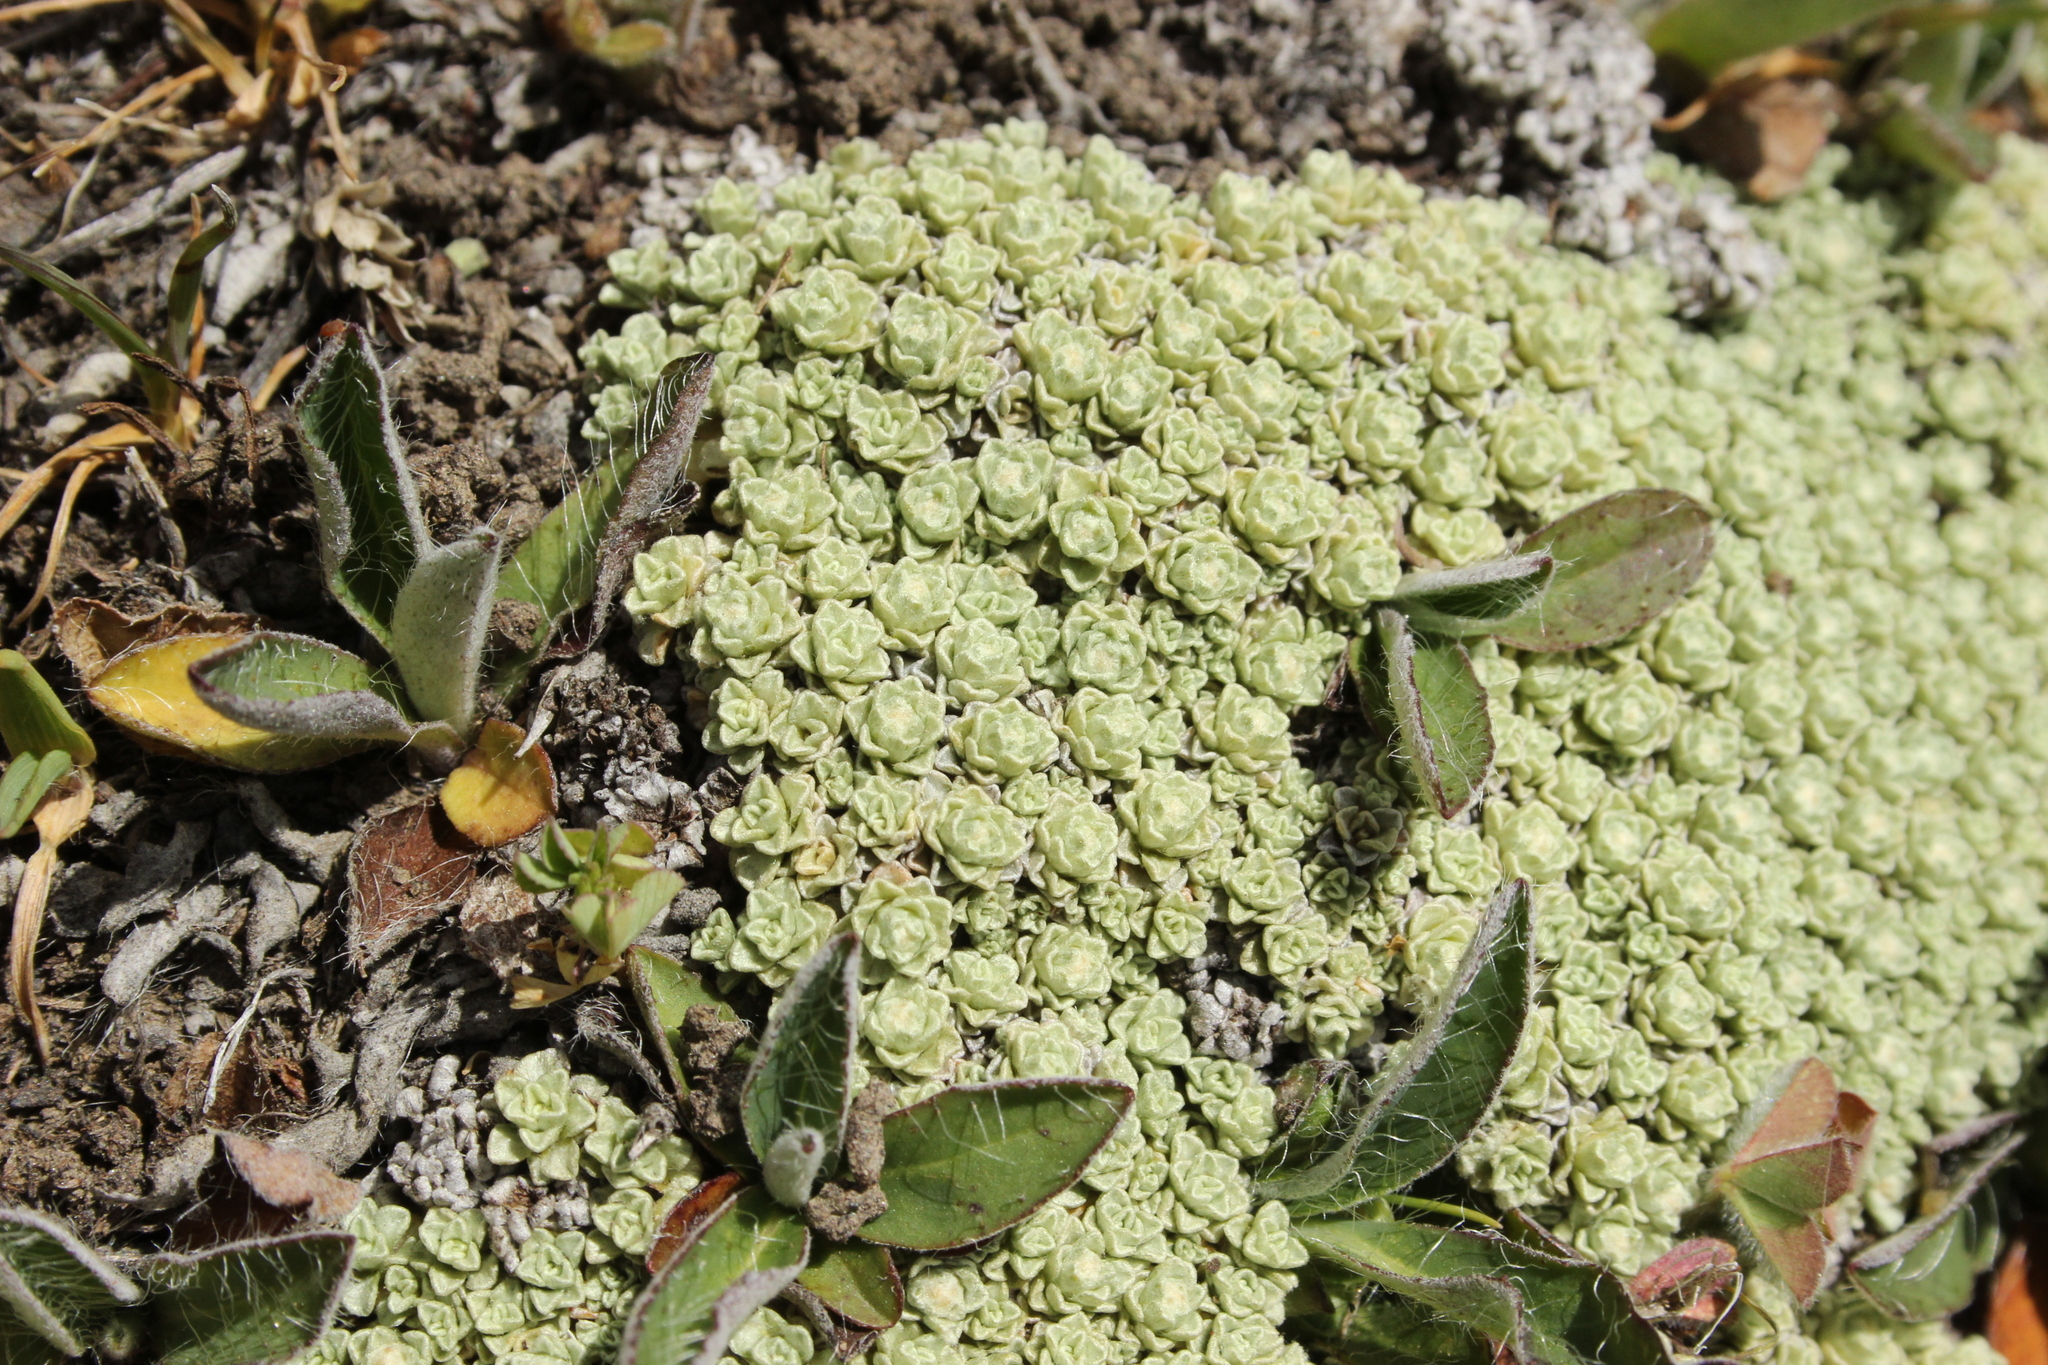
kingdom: Plantae
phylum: Tracheophyta
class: Magnoliopsida
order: Asterales
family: Asteraceae
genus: Raoulia
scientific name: Raoulia parkii
